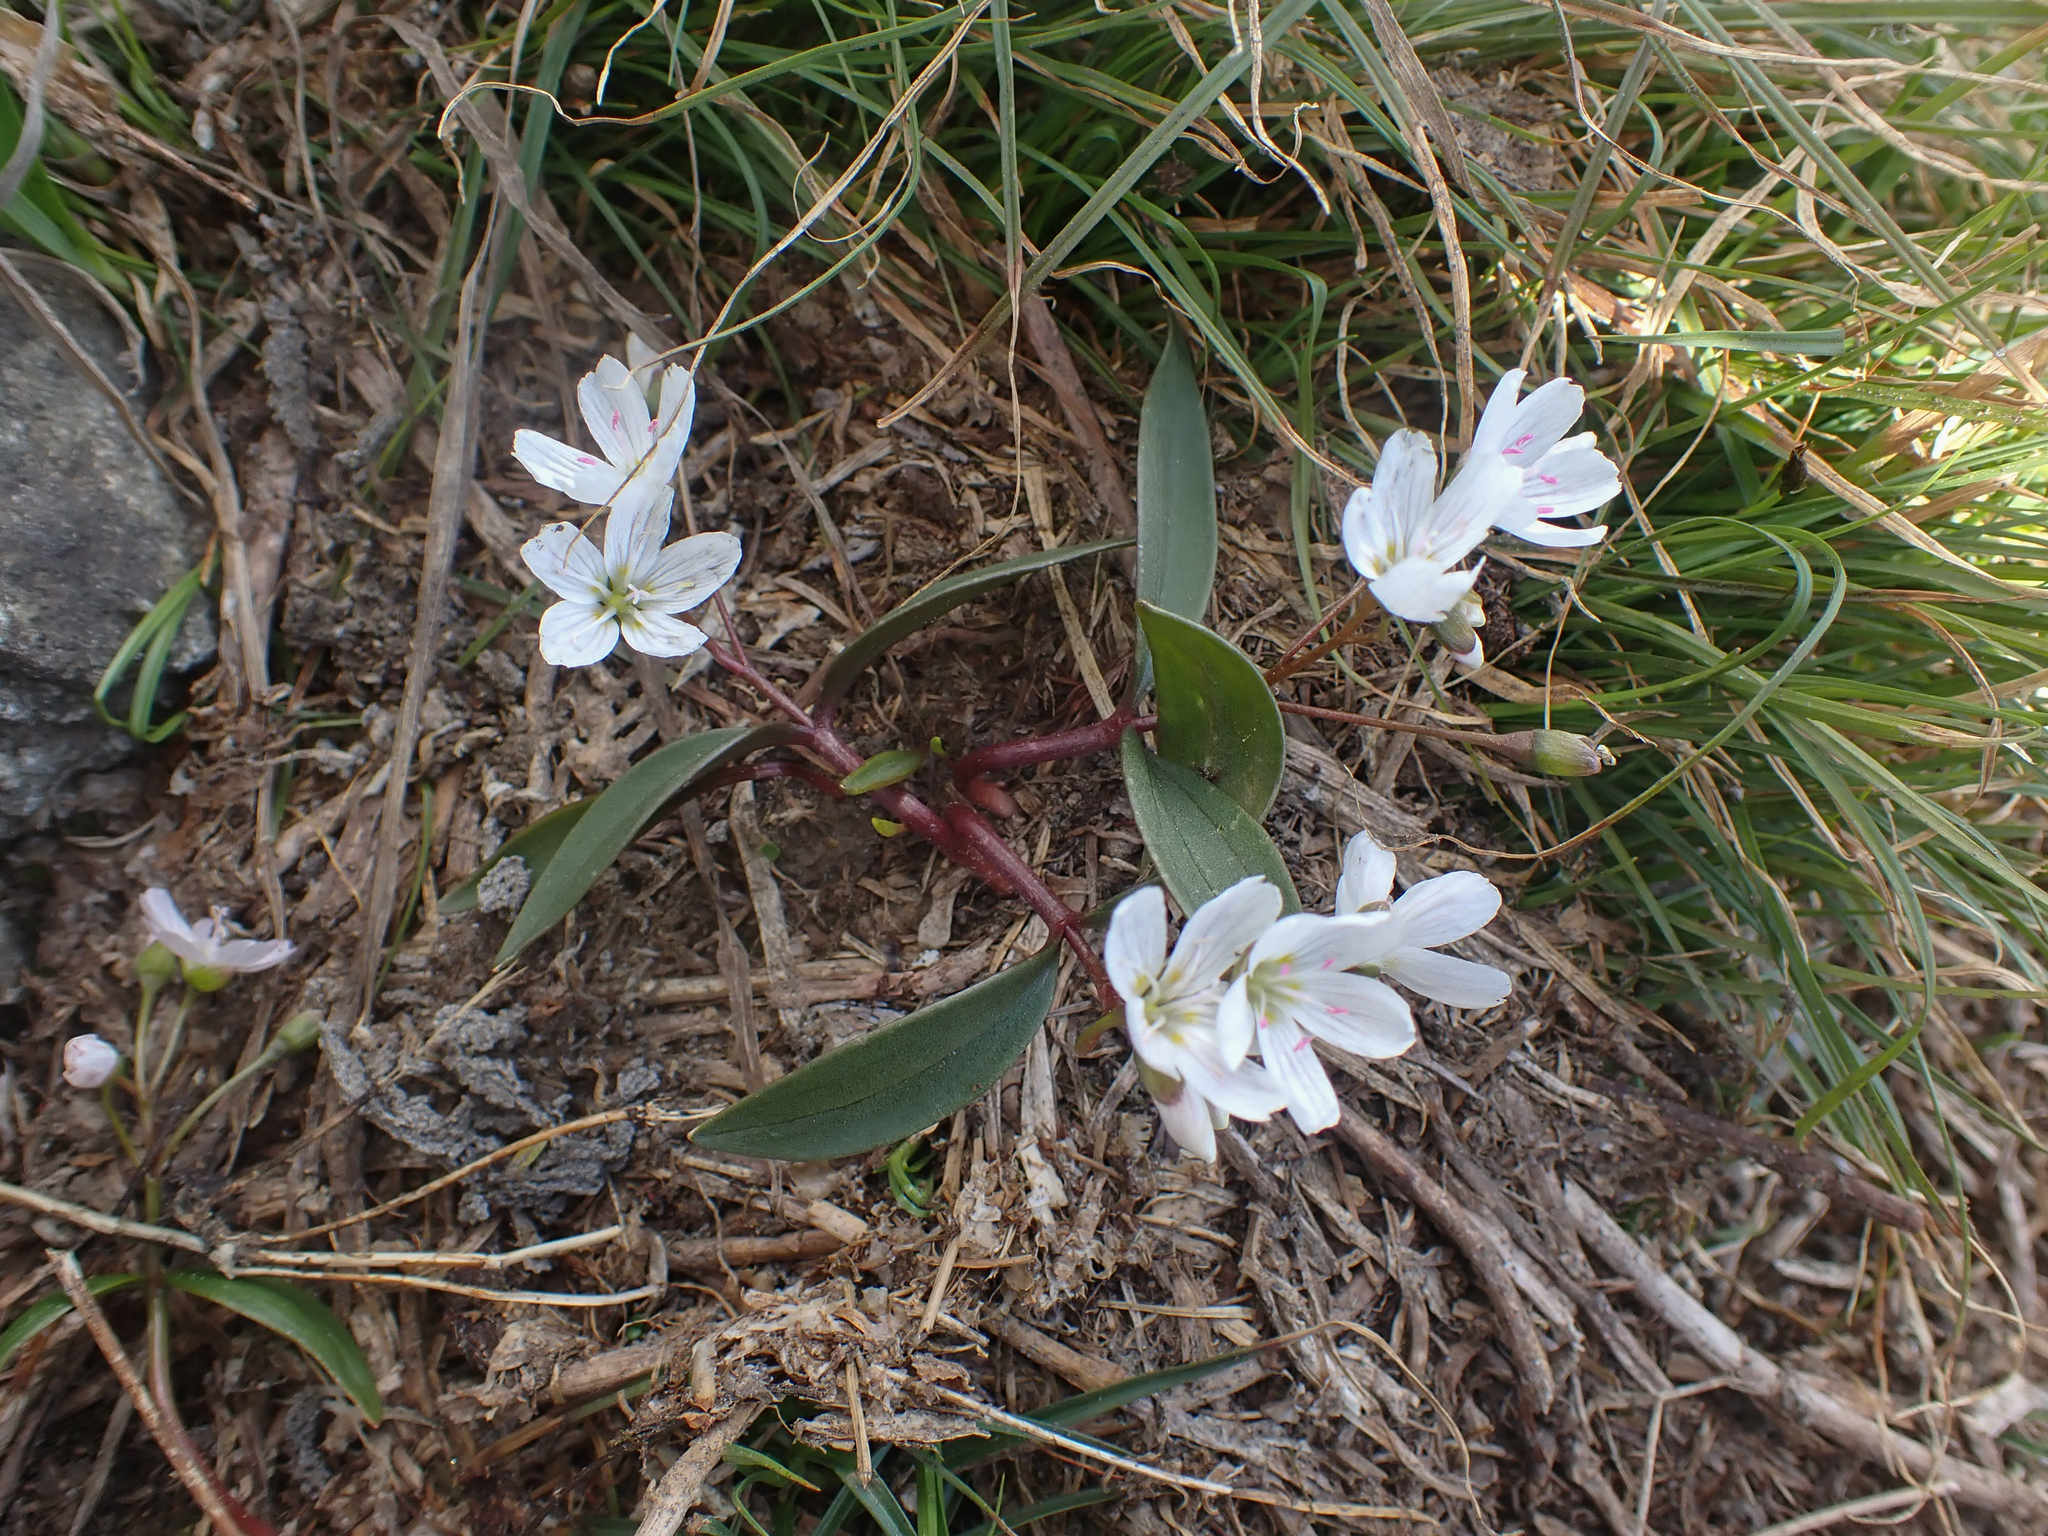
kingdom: Plantae
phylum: Tracheophyta
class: Magnoliopsida
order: Caryophyllales
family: Montiaceae
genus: Claytonia
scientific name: Claytonia lanceolata
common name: Western spring-beauty
